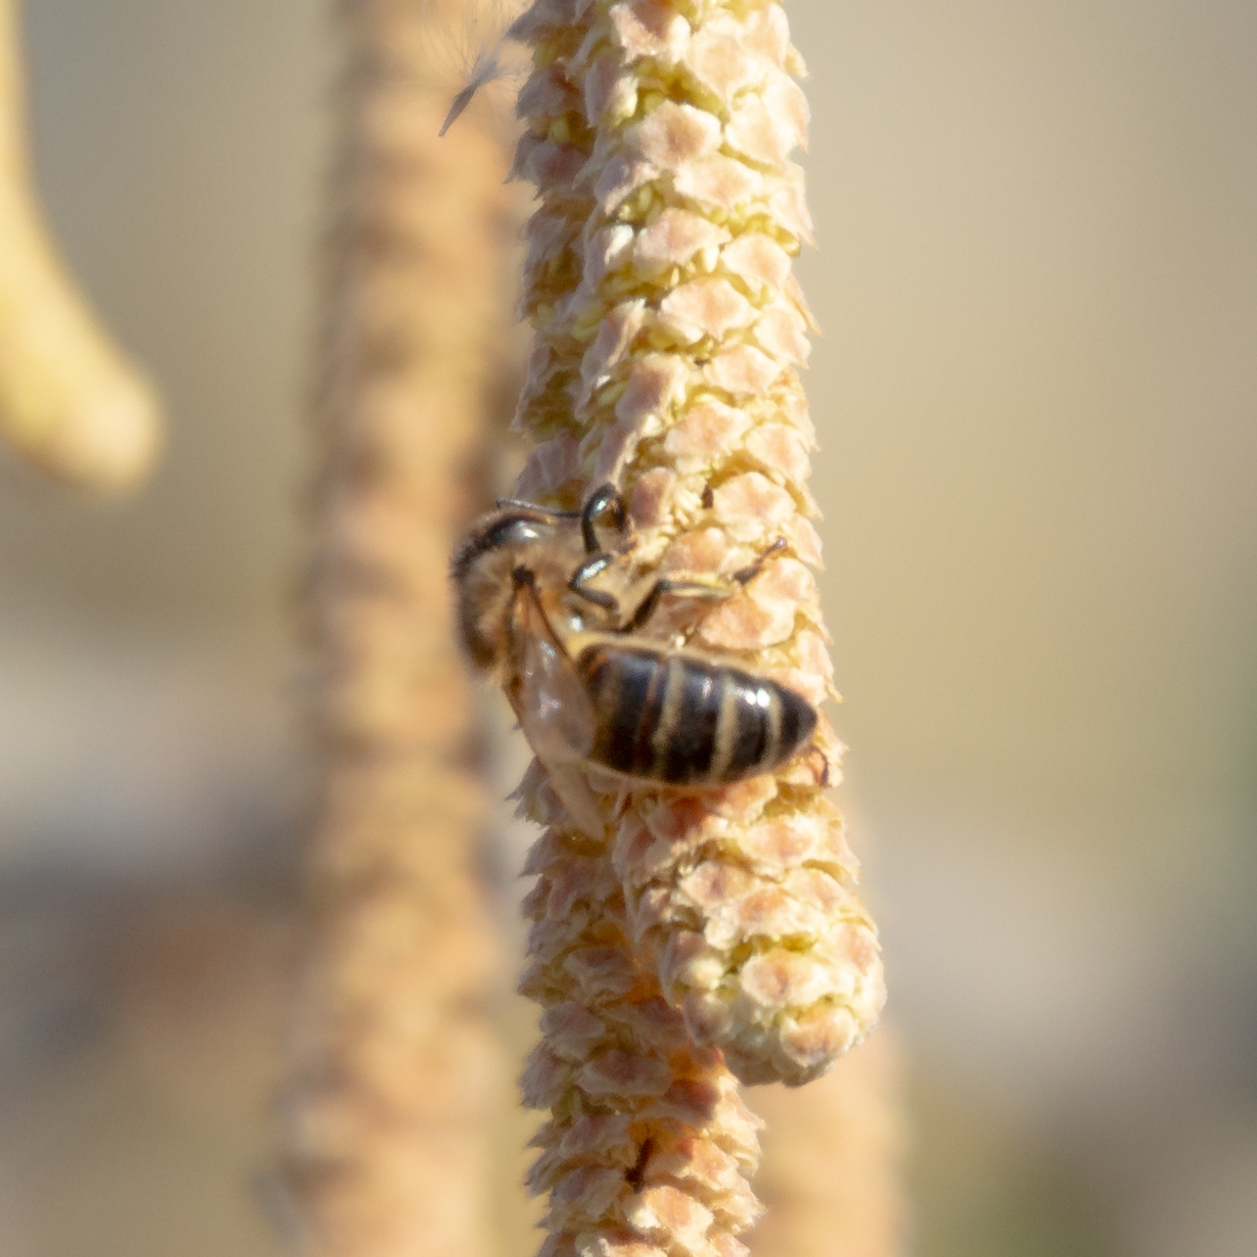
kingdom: Animalia
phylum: Arthropoda
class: Insecta
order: Hymenoptera
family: Apidae
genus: Apis
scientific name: Apis mellifera
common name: Honey bee
